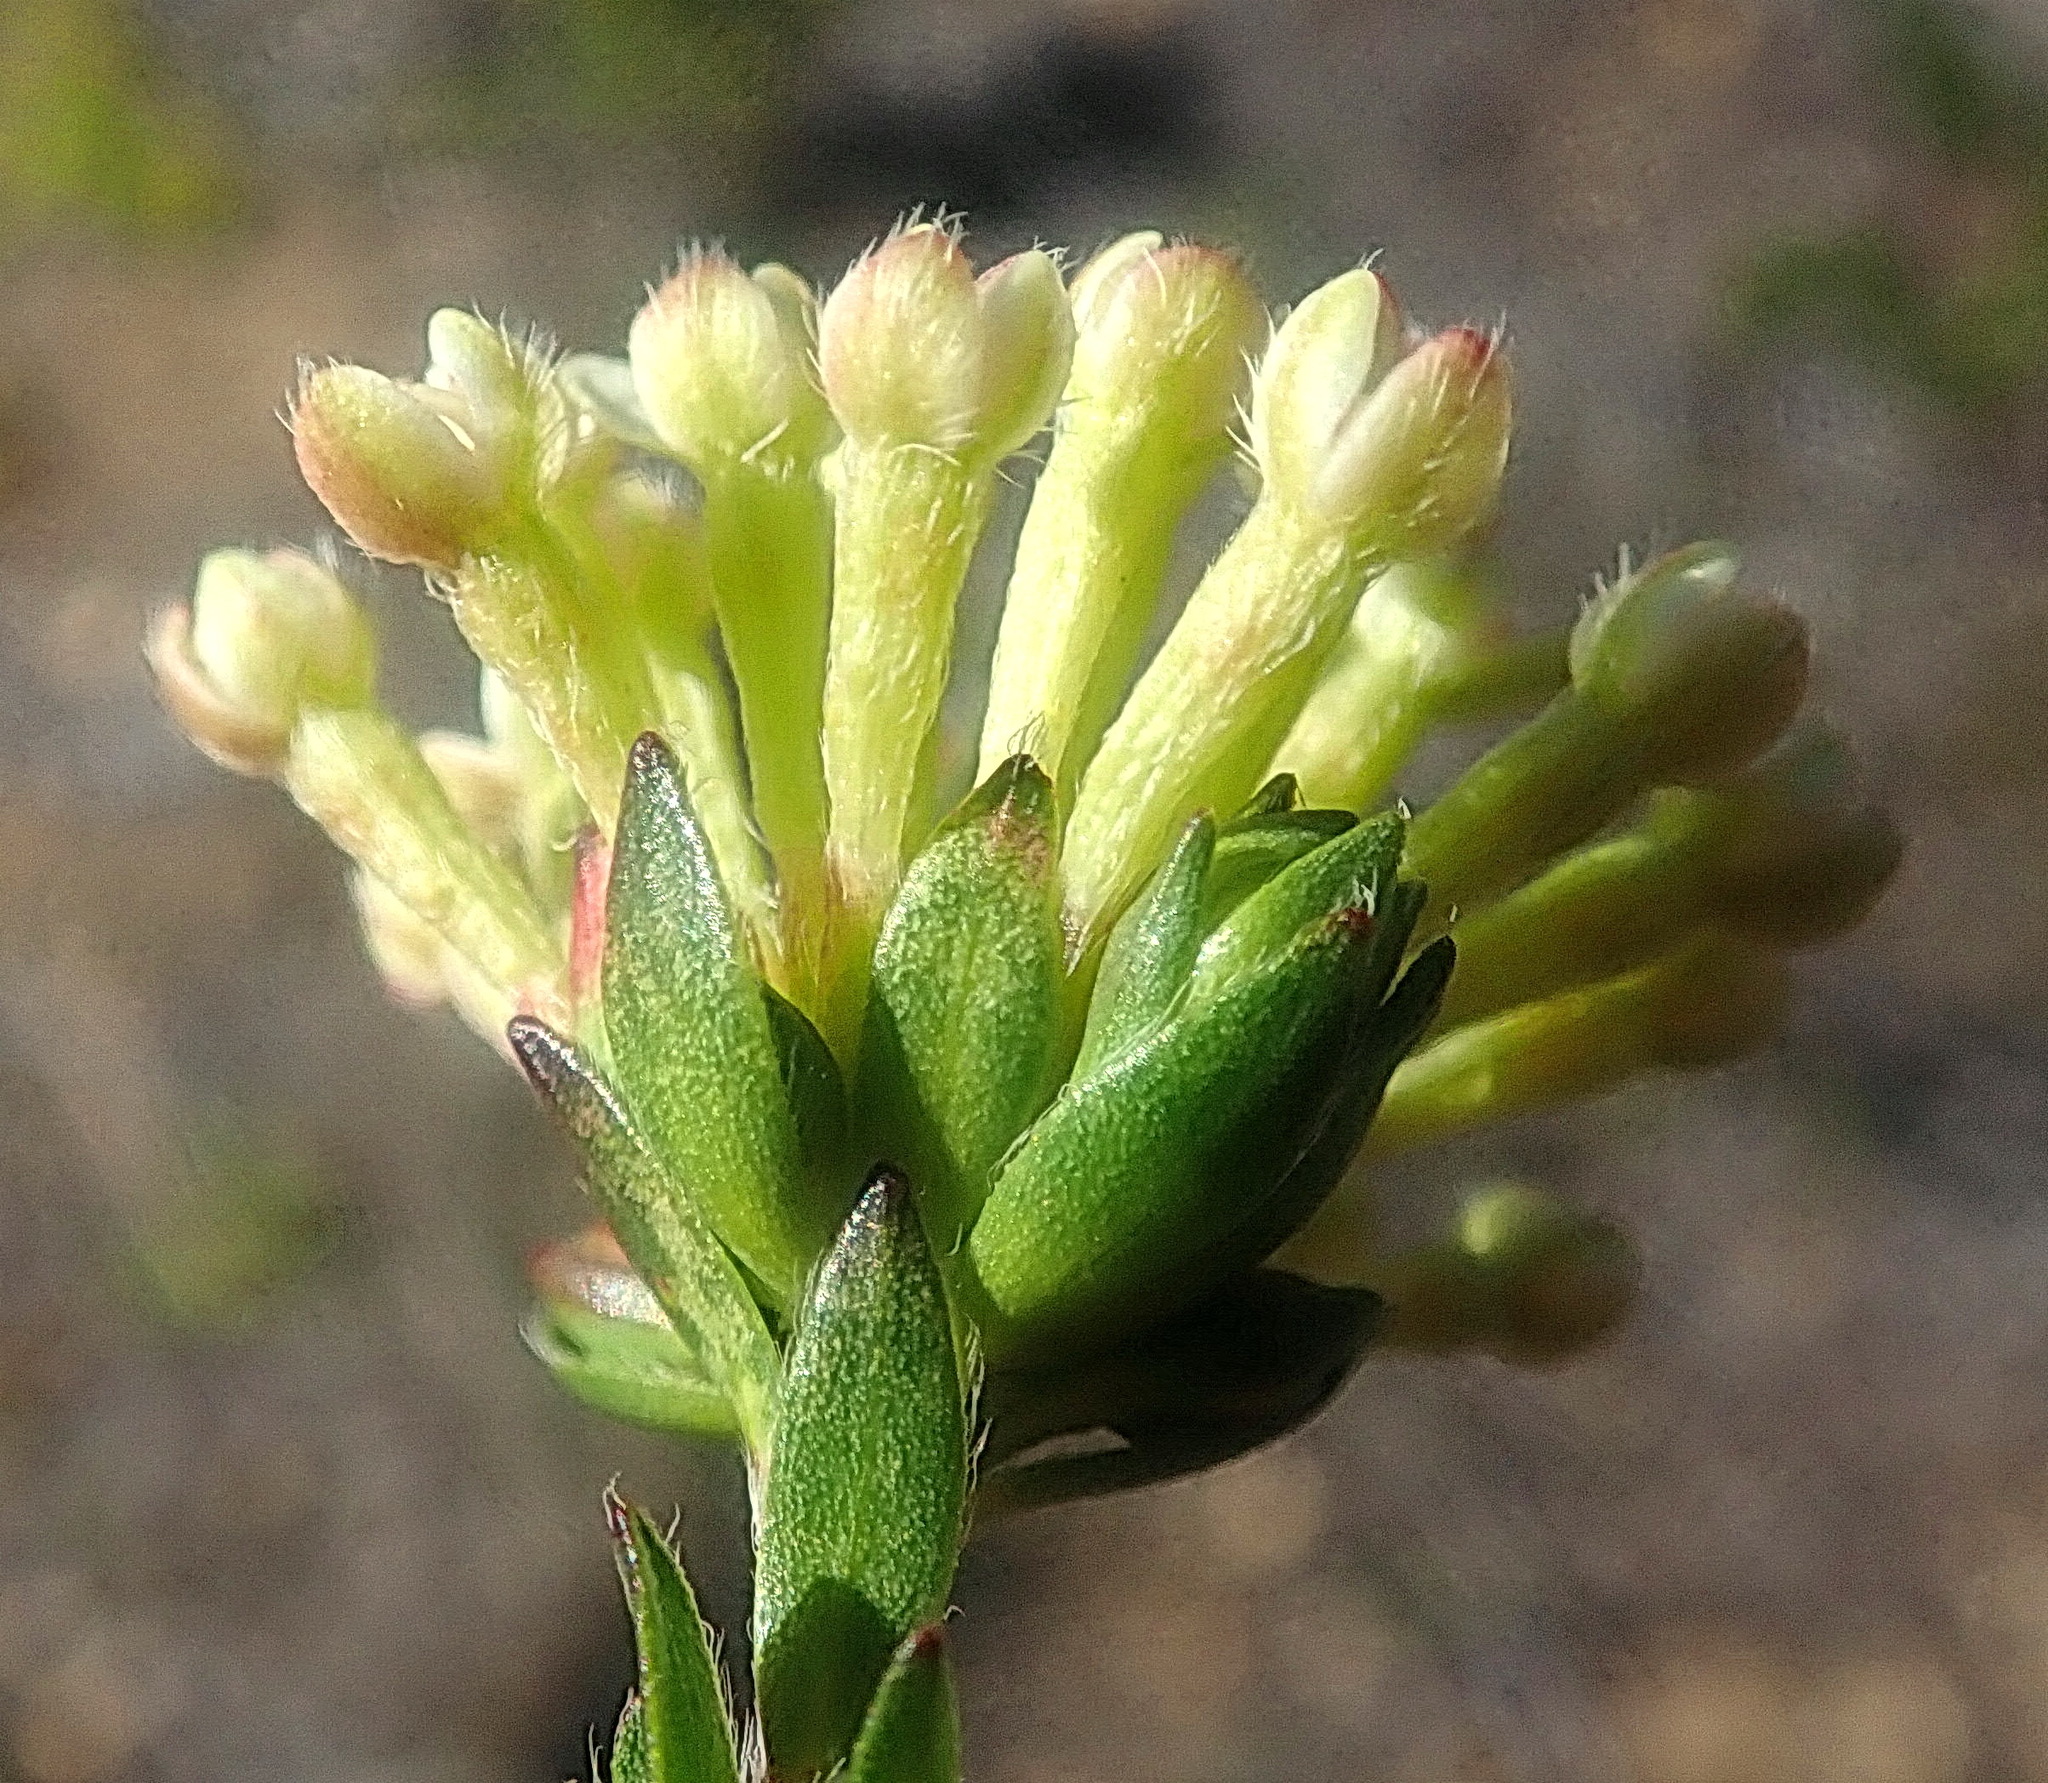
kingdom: Plantae
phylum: Tracheophyta
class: Magnoliopsida
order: Malvales
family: Thymelaeaceae
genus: Gnidia
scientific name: Gnidia squarrosa
